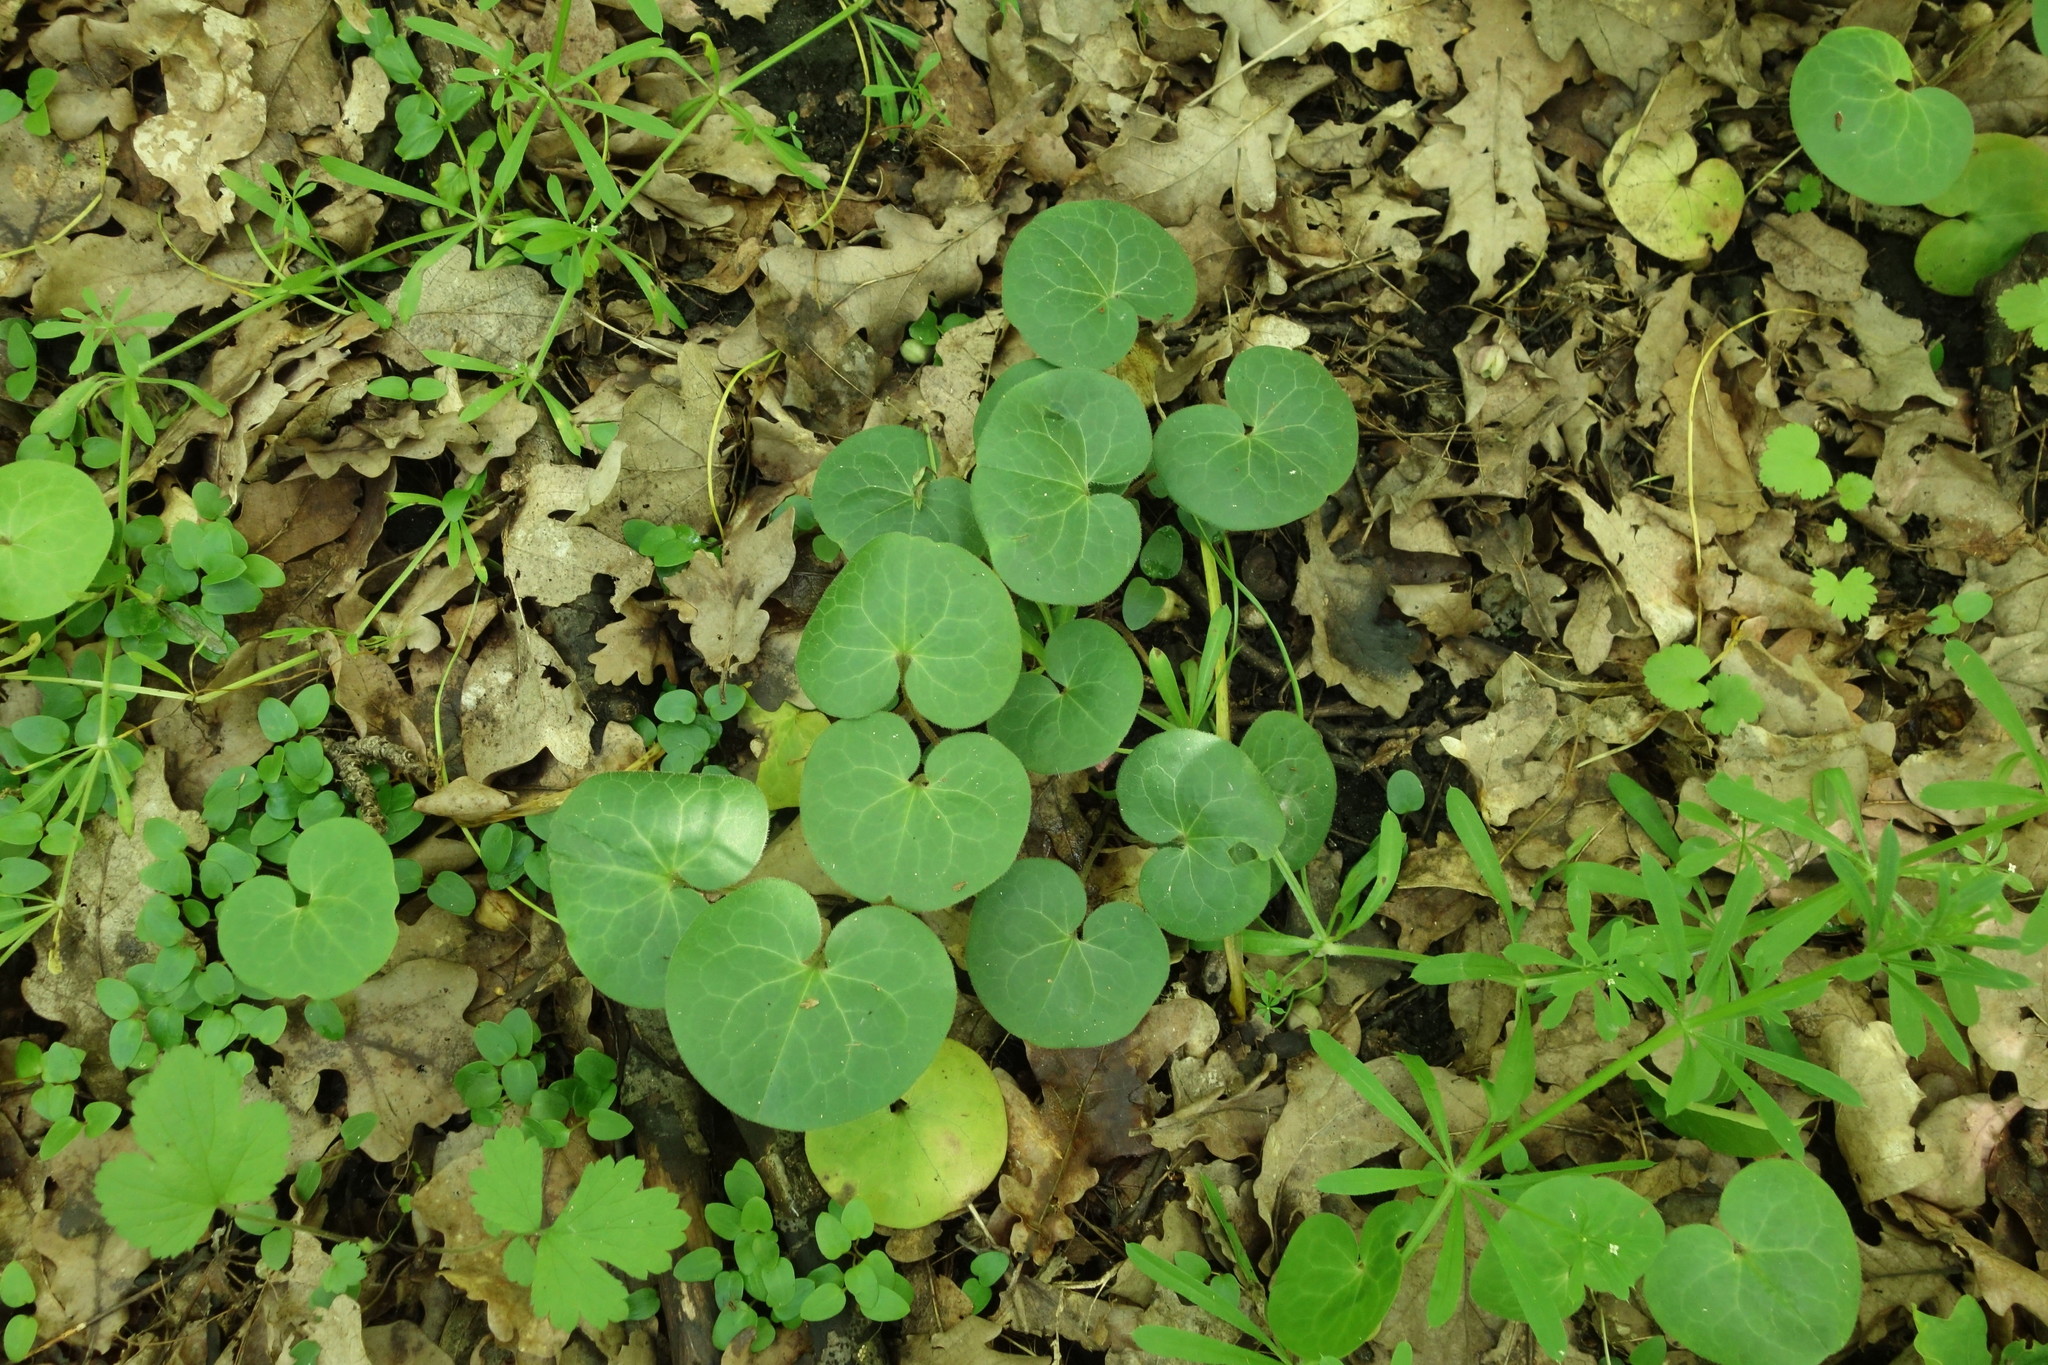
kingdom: Plantae
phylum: Tracheophyta
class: Magnoliopsida
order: Piperales
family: Aristolochiaceae
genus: Asarum
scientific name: Asarum europaeum
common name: Asarabacca
